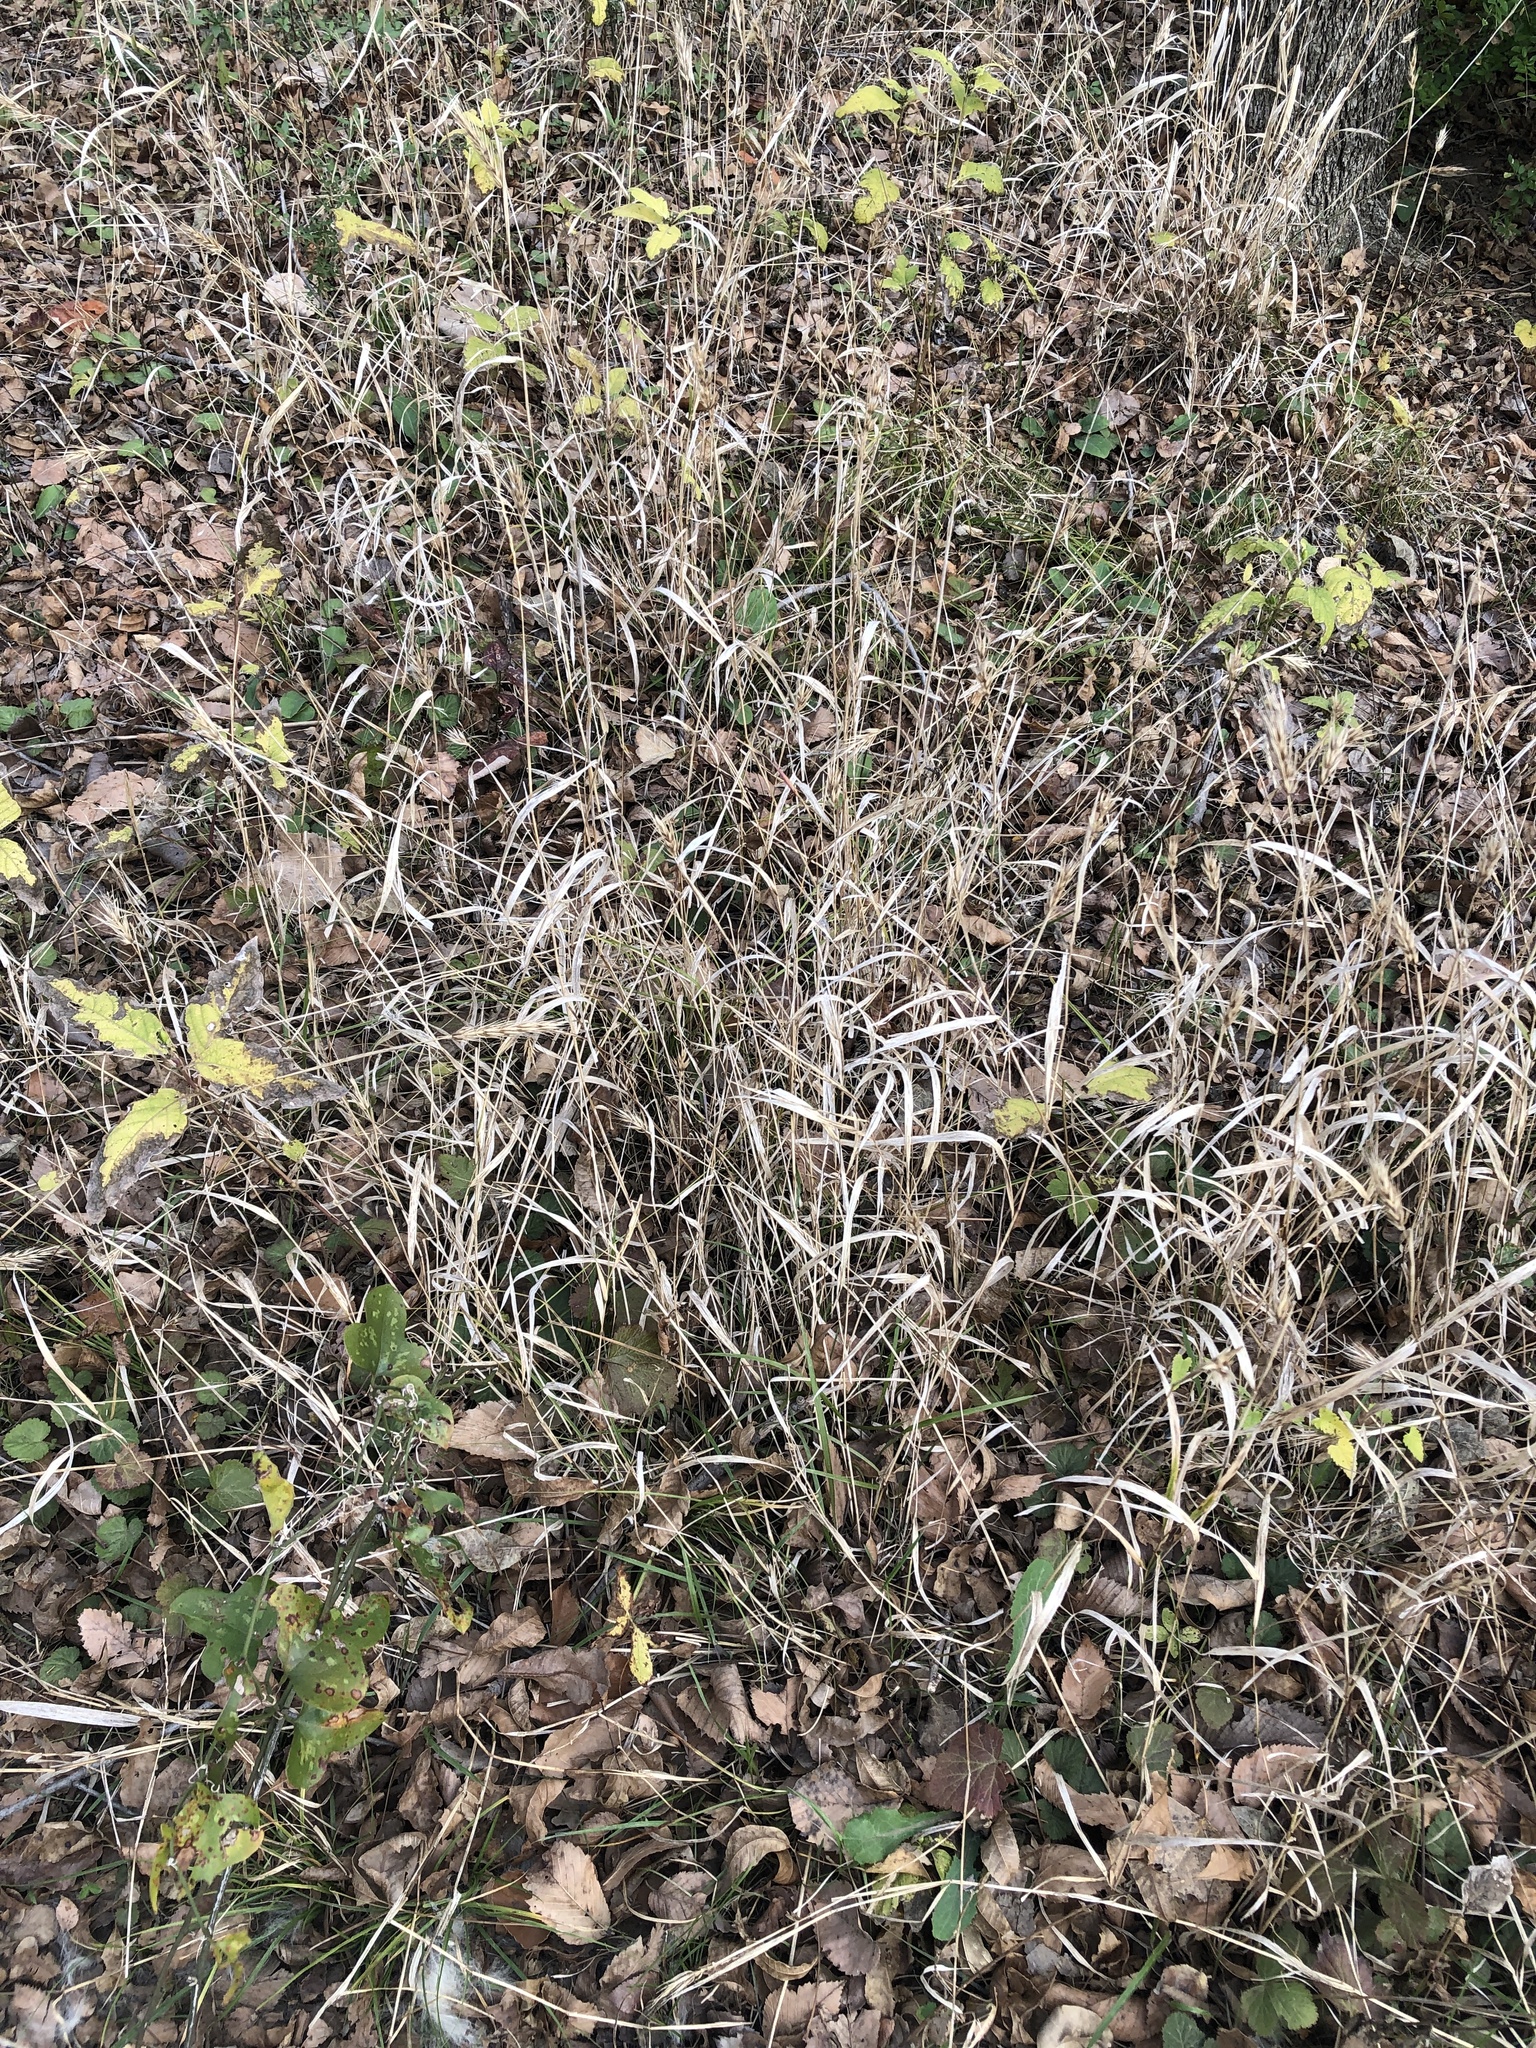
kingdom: Plantae
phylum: Tracheophyta
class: Liliopsida
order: Poales
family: Poaceae
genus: Elymus
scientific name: Elymus virginicus
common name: Common eastern wildrye
